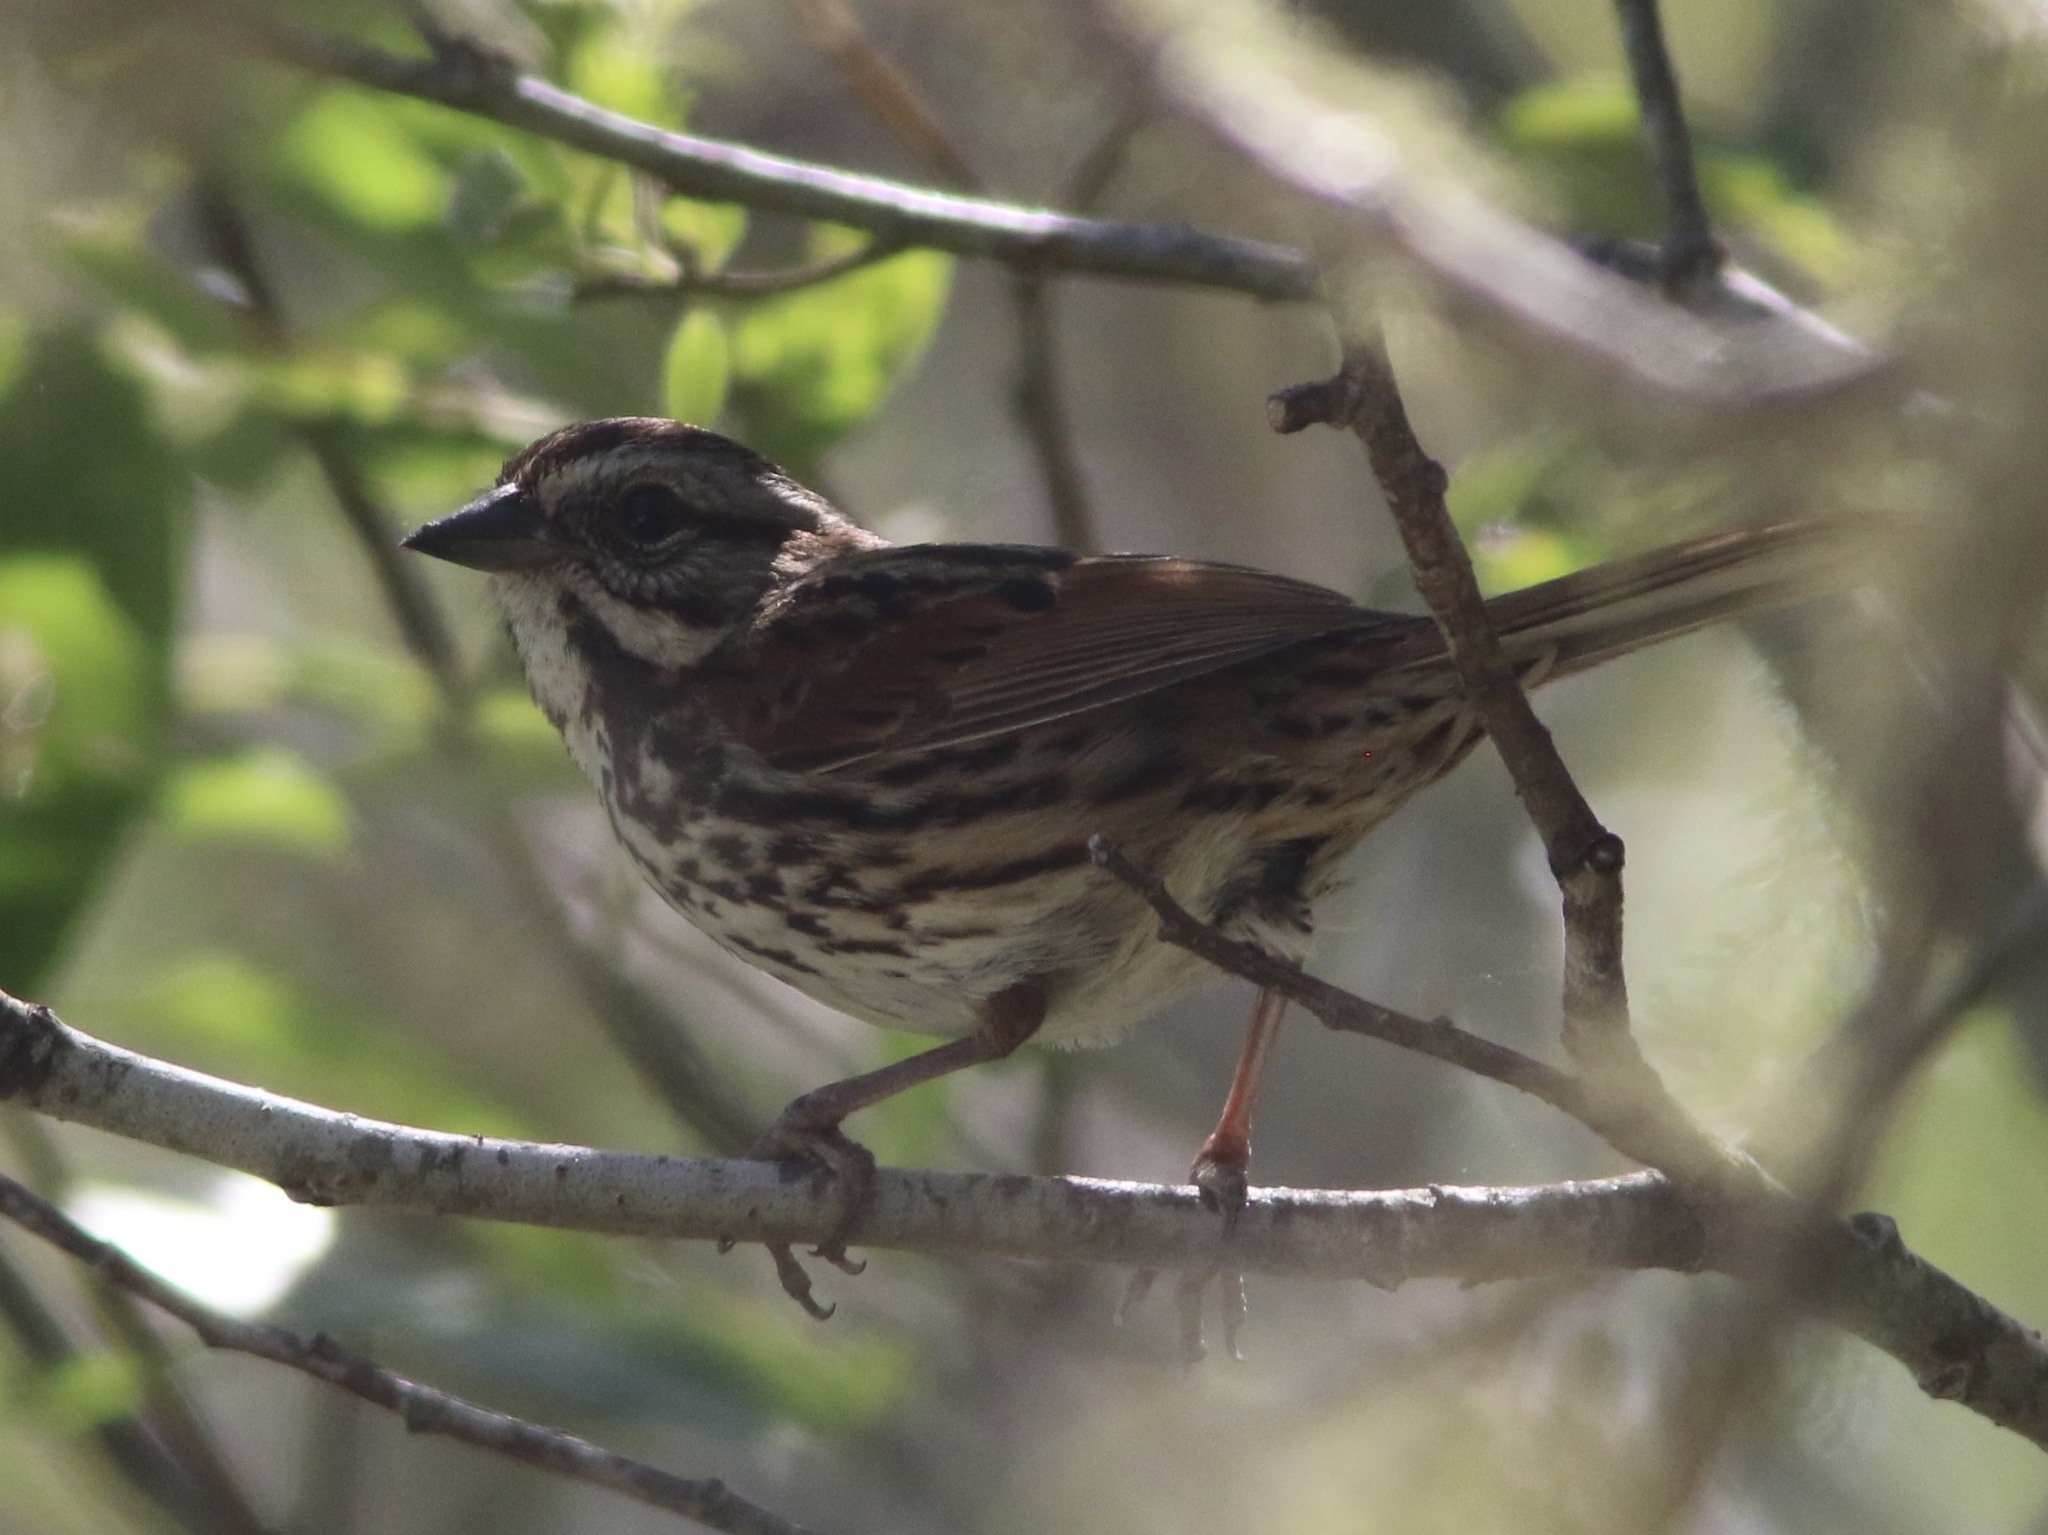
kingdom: Animalia
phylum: Chordata
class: Aves
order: Passeriformes
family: Passerellidae
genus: Melospiza
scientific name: Melospiza melodia
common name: Song sparrow
